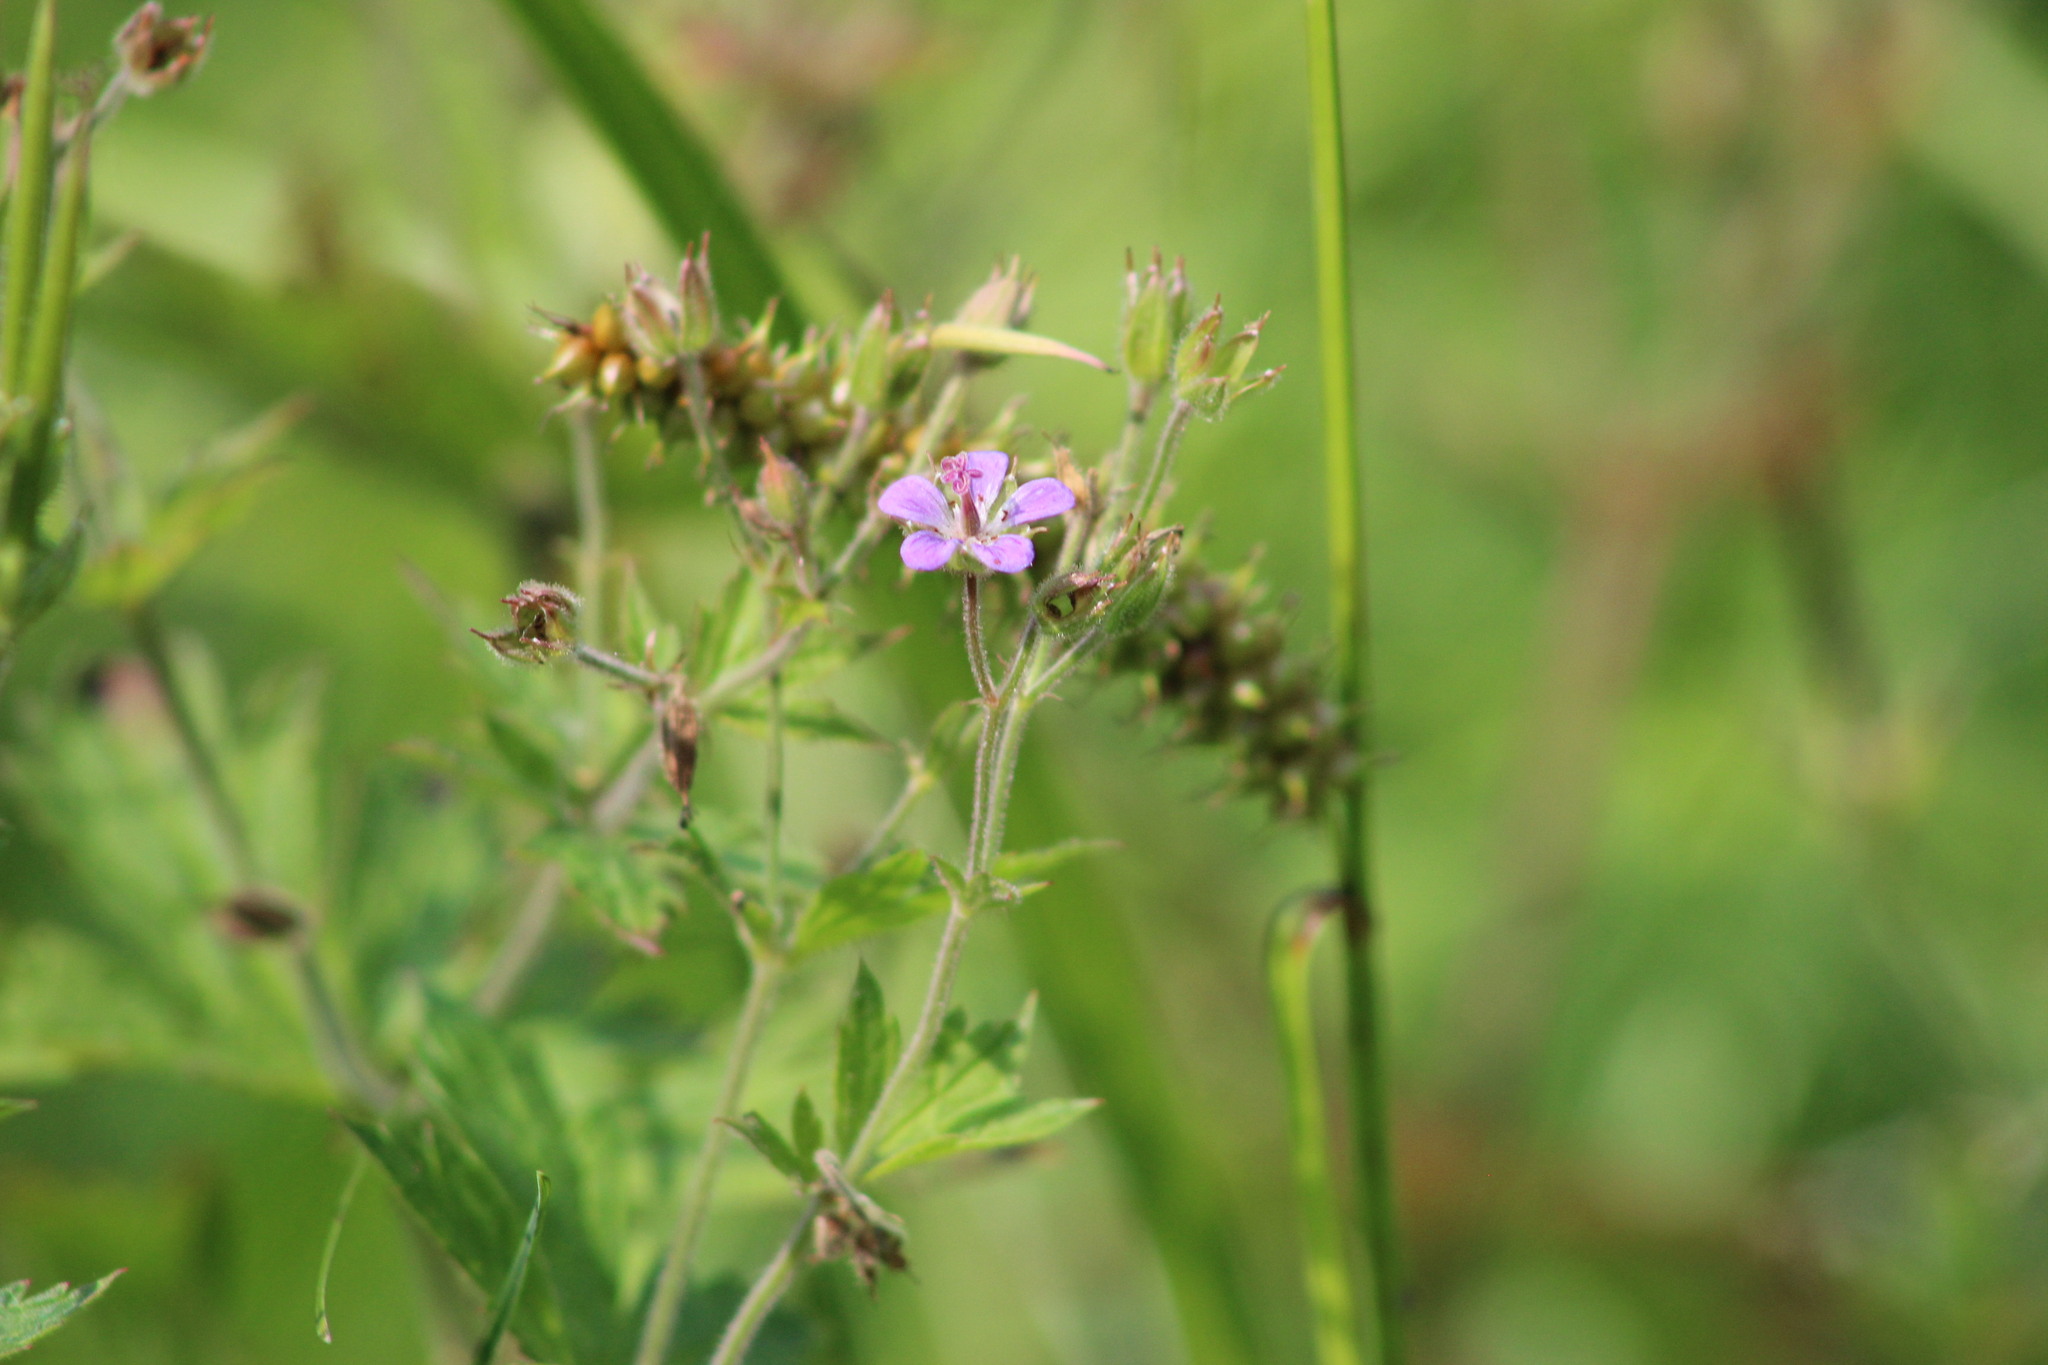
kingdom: Plantae
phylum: Tracheophyta
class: Magnoliopsida
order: Geraniales
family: Geraniaceae
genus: Geranium
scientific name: Geranium sylvaticum
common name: Wood crane's-bill
